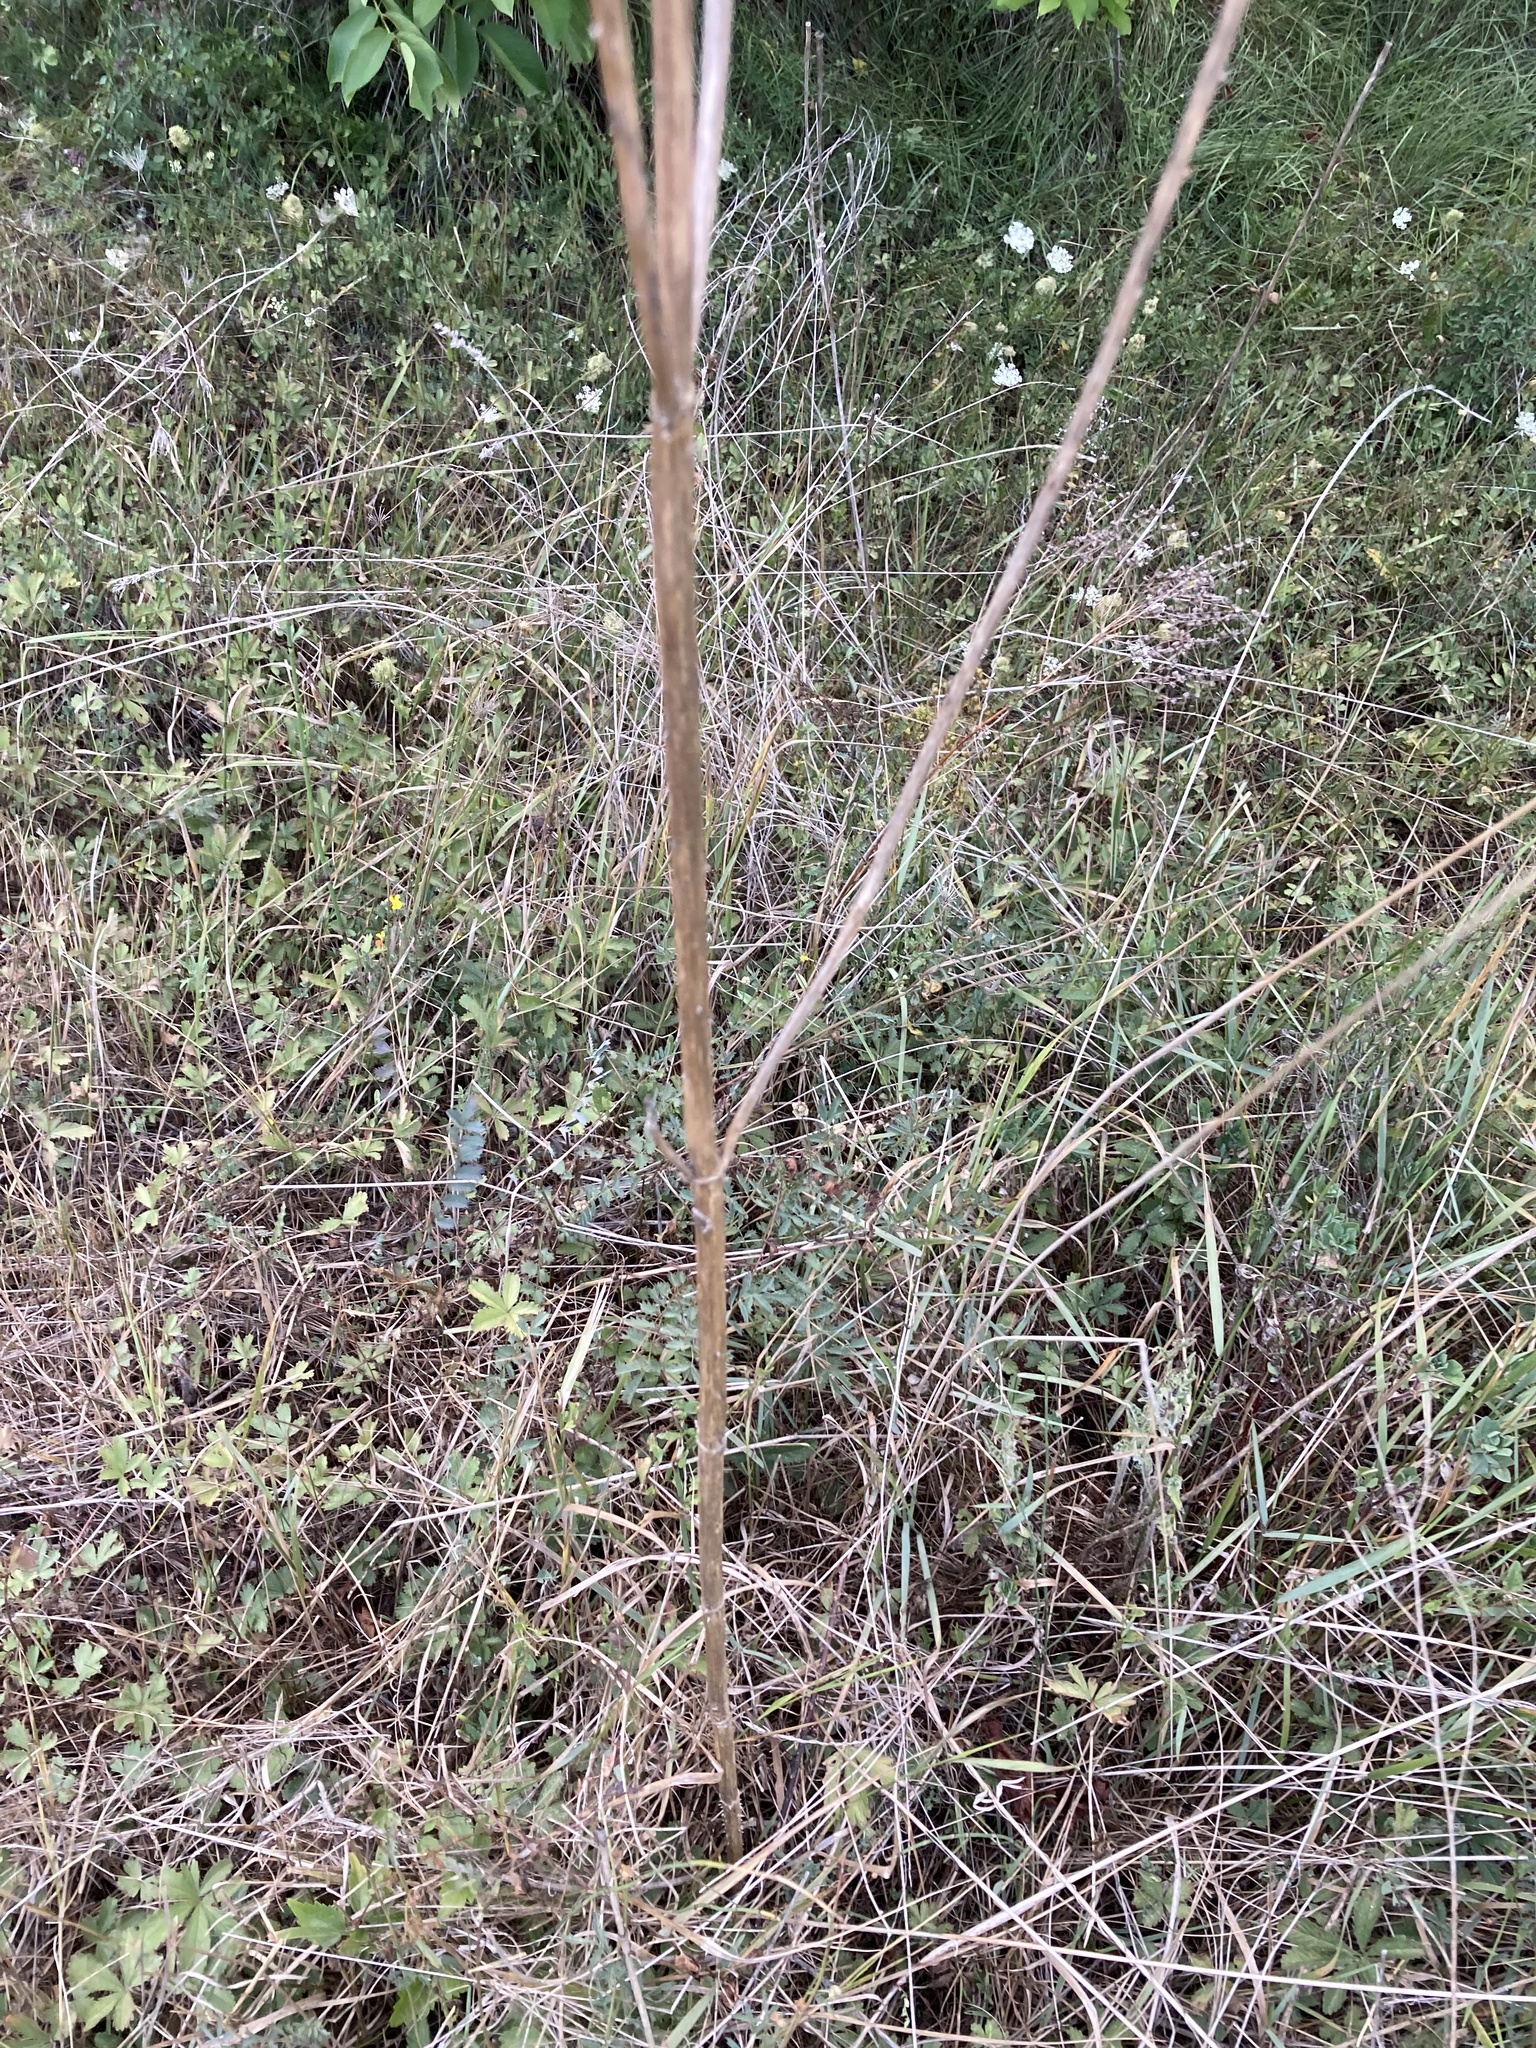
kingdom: Plantae
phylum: Tracheophyta
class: Magnoliopsida
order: Dipsacales
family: Caprifoliaceae
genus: Dipsacus
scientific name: Dipsacus fullonum
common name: Teasel
